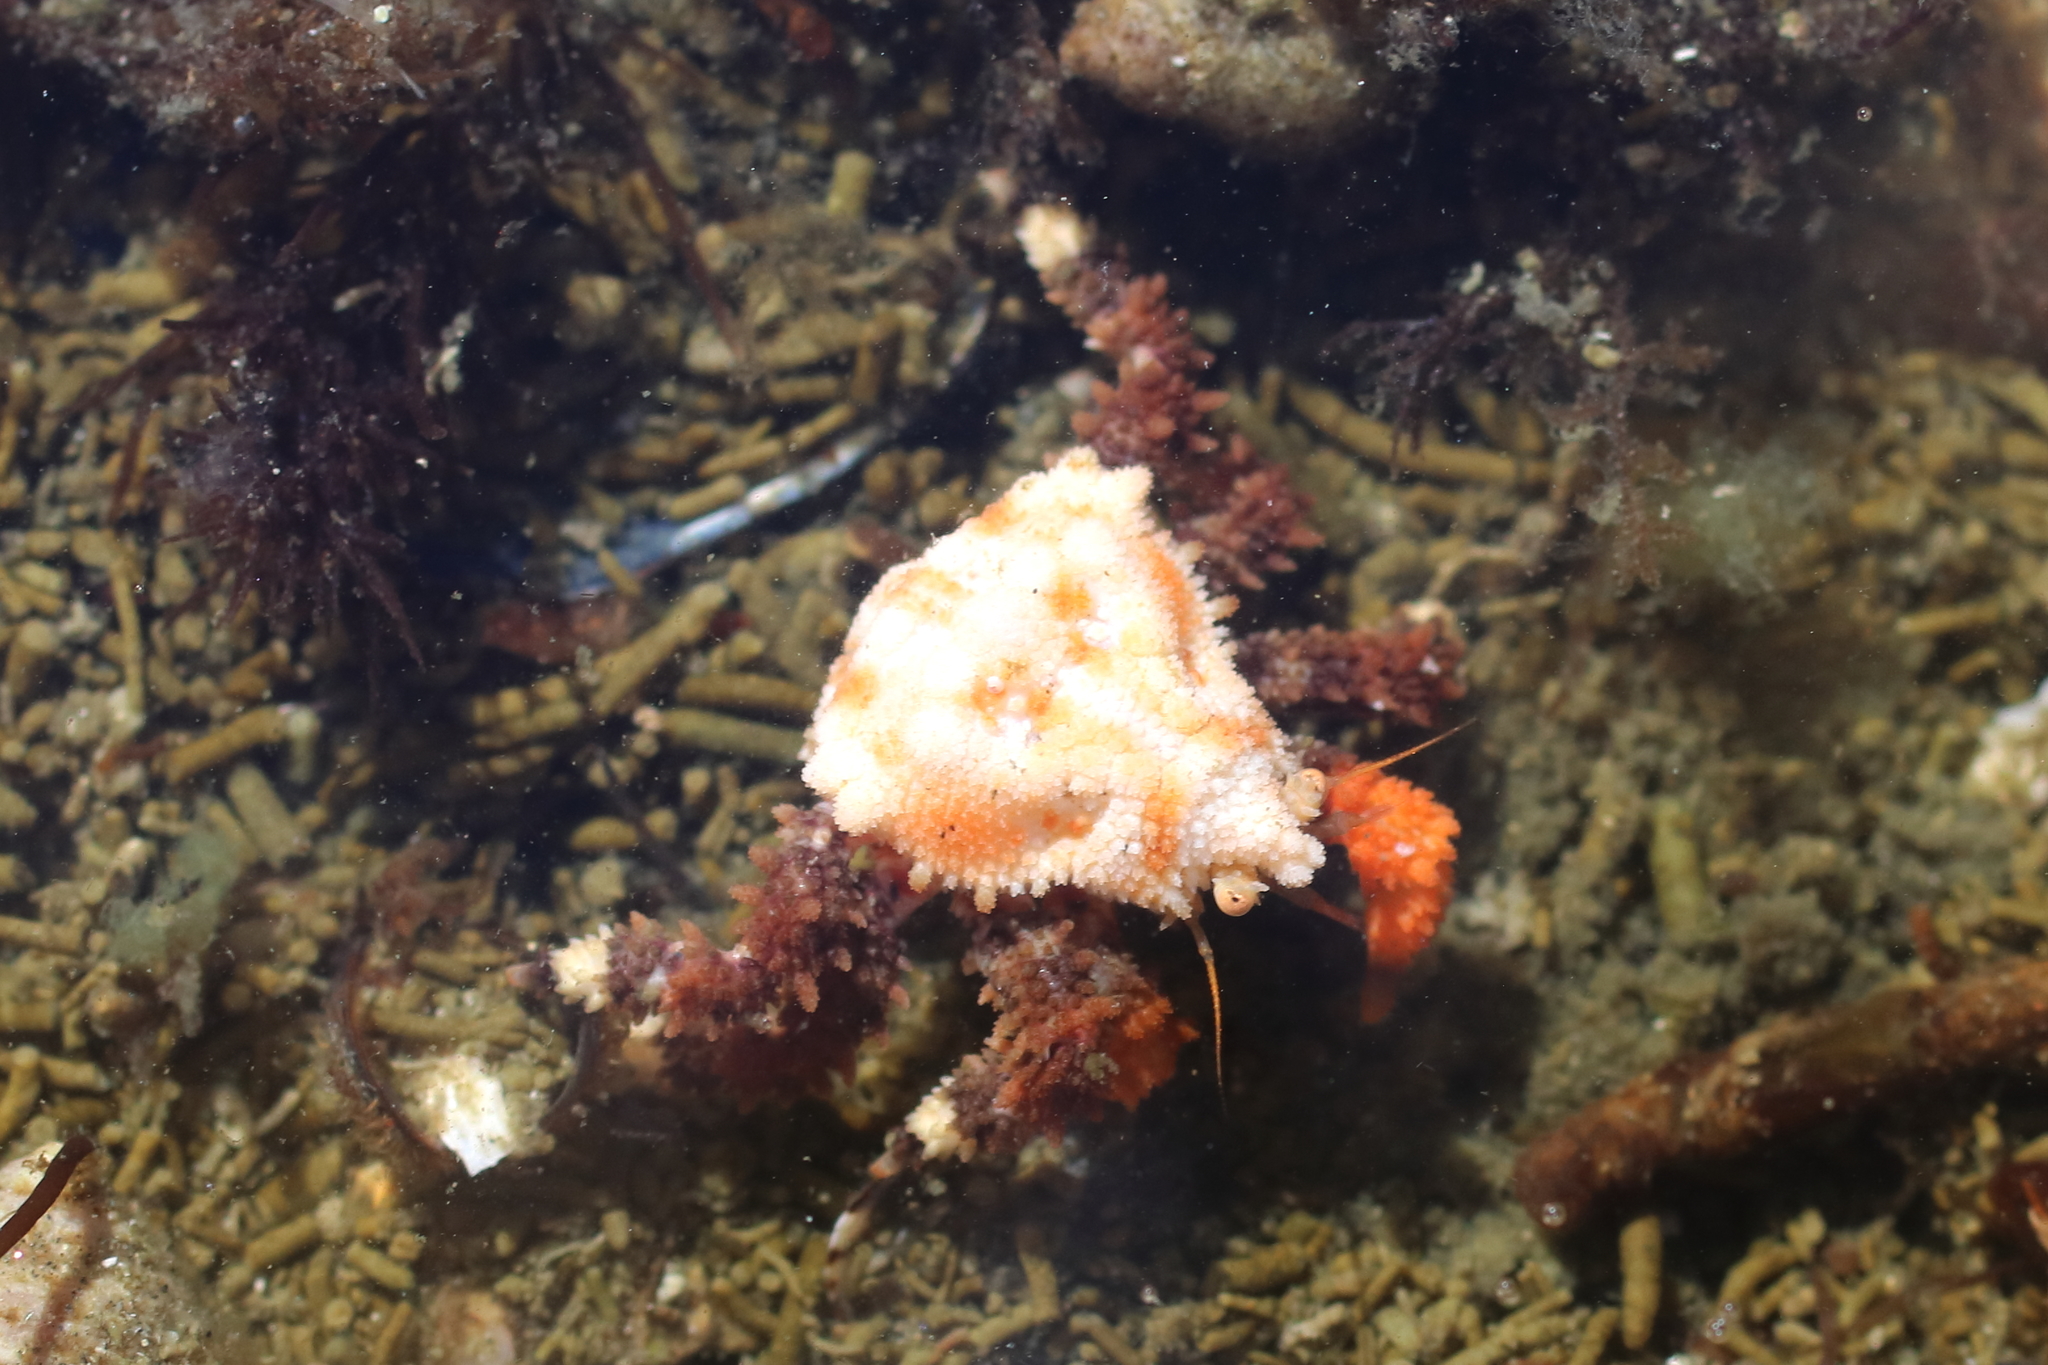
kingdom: Animalia
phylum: Arthropoda
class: Malacostraca
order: Decapoda
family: Lithodidae
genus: Phyllolithodes
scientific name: Phyllolithodes papillosus
